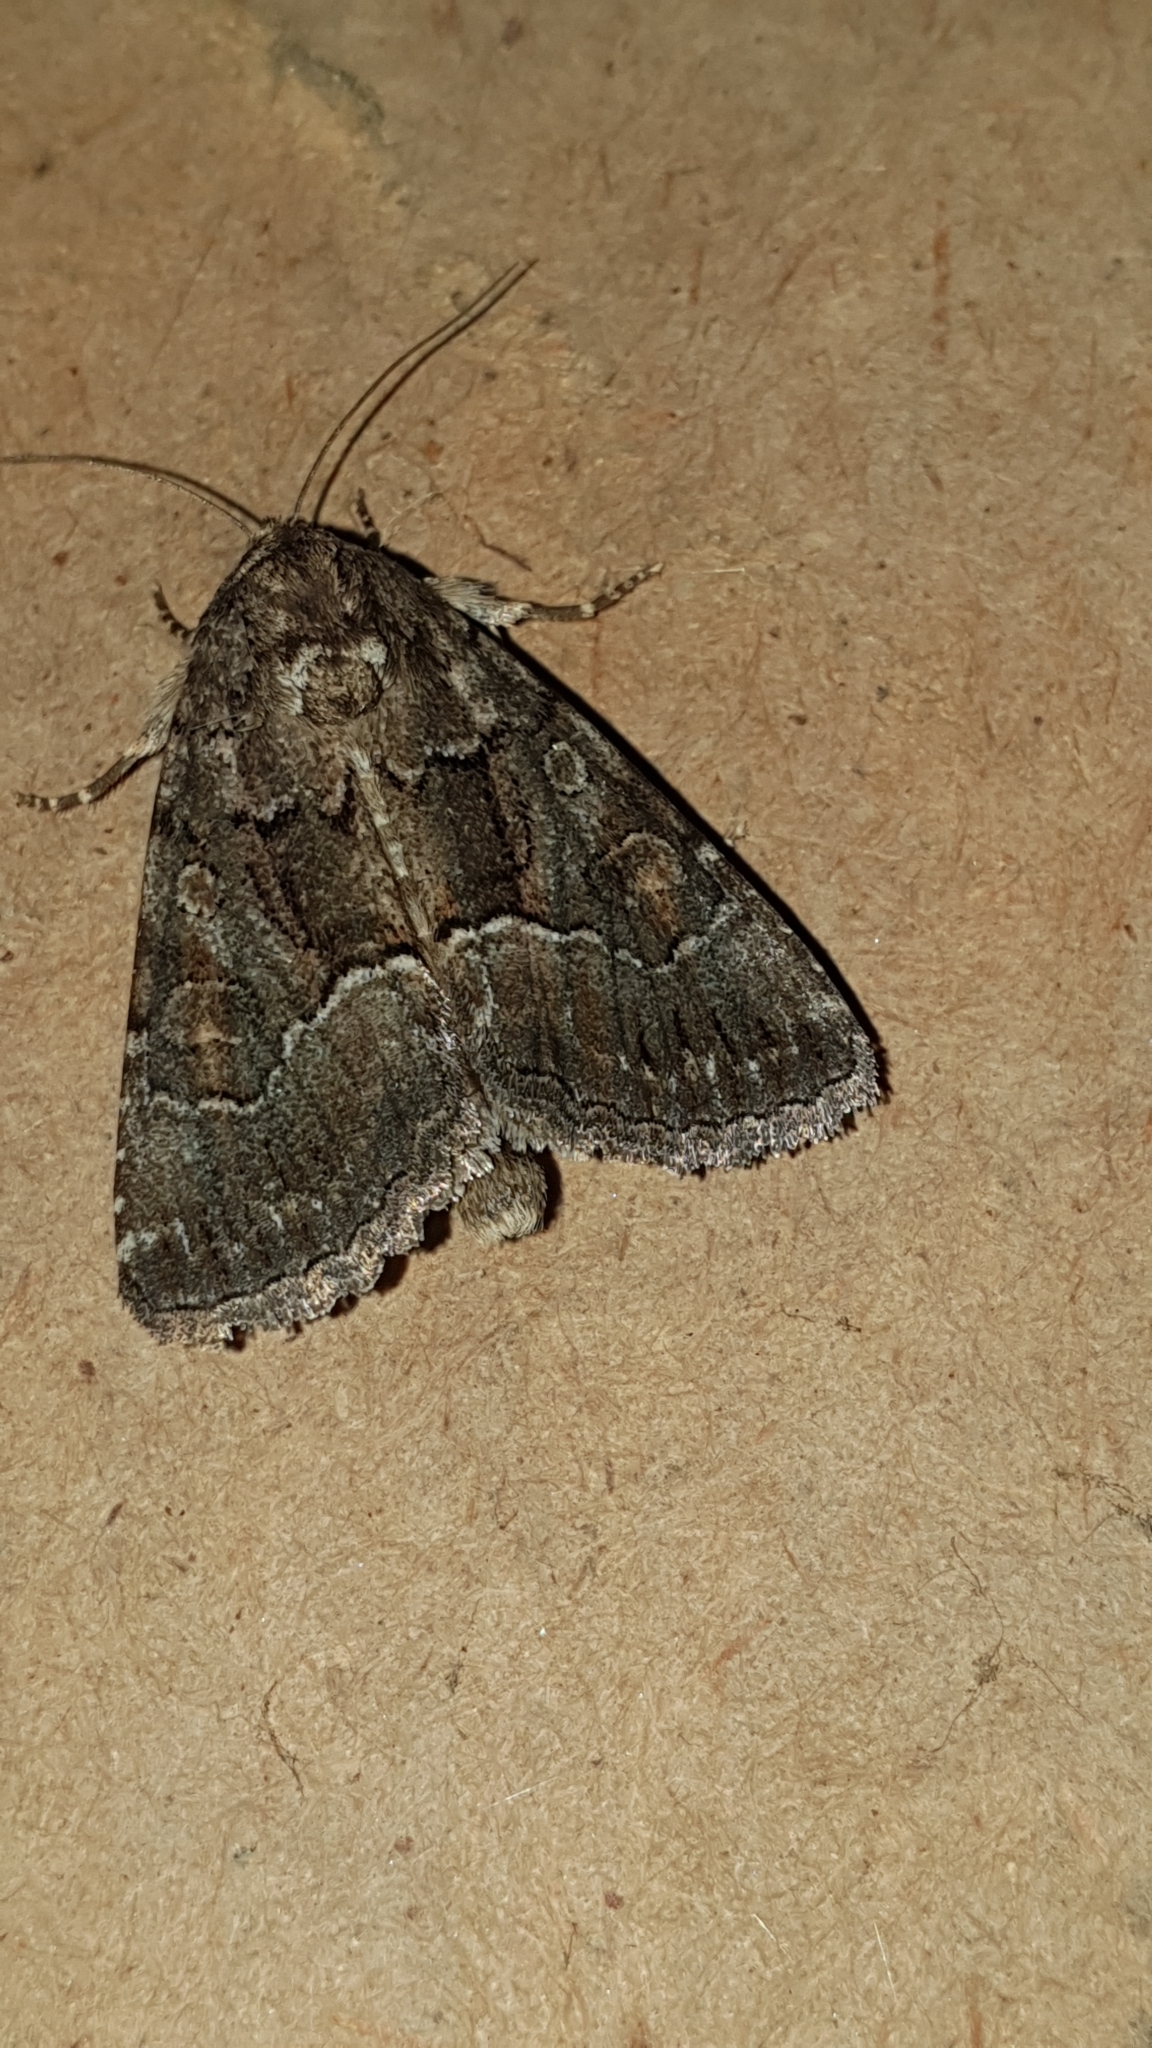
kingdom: Animalia
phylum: Arthropoda
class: Insecta
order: Lepidoptera
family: Noctuidae
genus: Thalpophila
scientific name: Thalpophila matura
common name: Straw underwing
